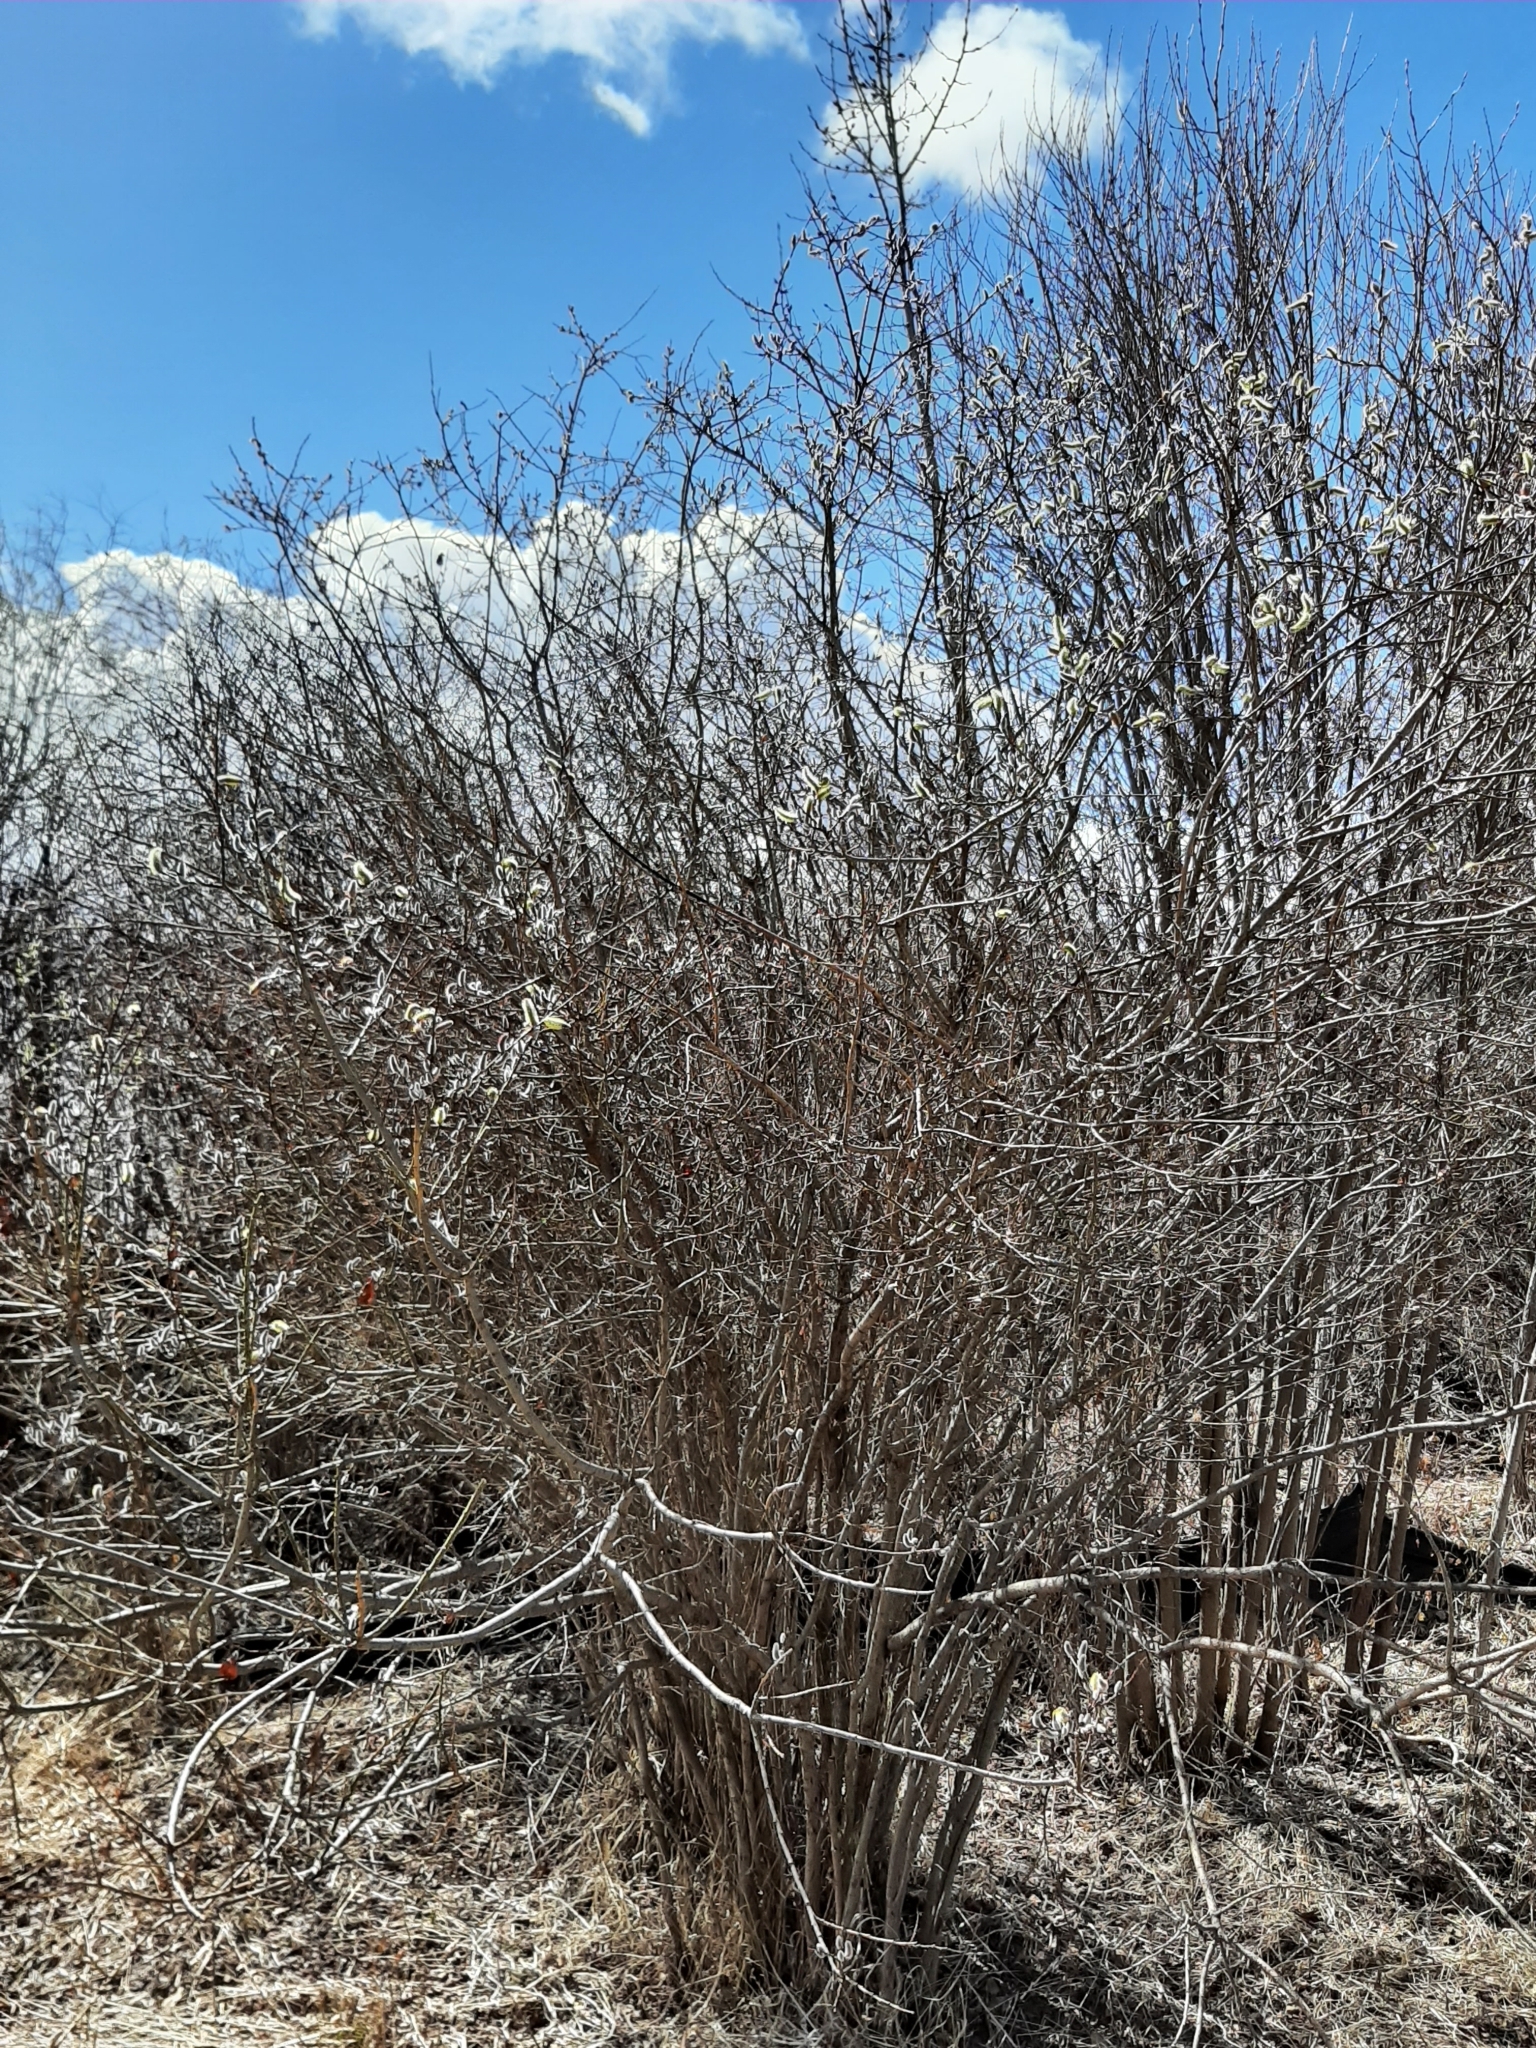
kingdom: Plantae
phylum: Tracheophyta
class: Magnoliopsida
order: Malpighiales
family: Salicaceae
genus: Salix
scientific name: Salix discolor
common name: Glaucous willow
